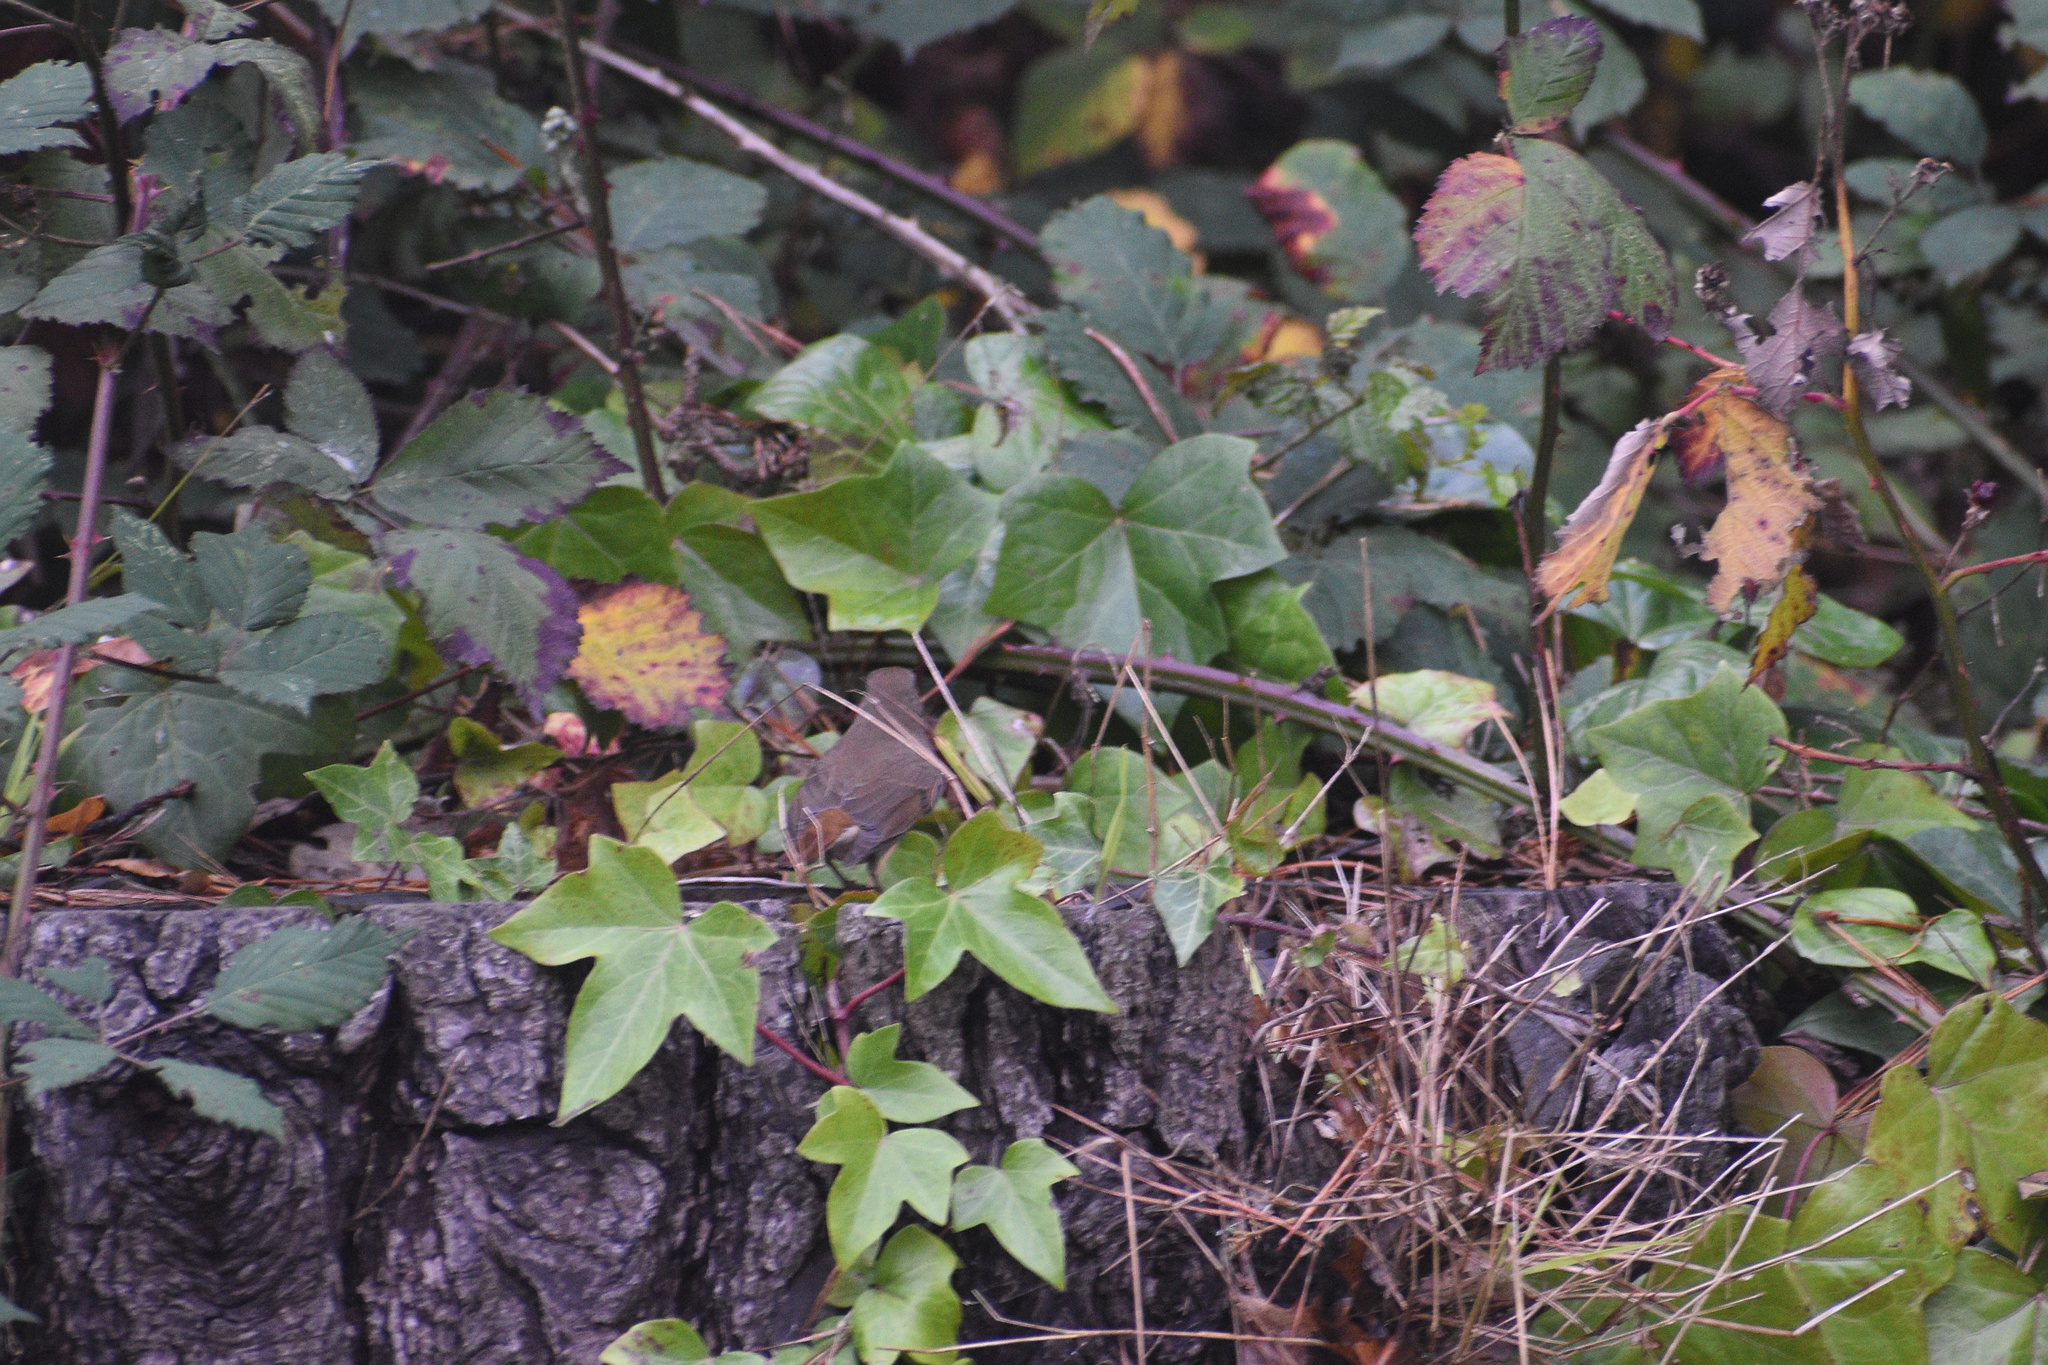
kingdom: Animalia
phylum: Chordata
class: Aves
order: Passeriformes
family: Turdidae
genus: Catharus
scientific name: Catharus guttatus
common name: Hermit thrush
